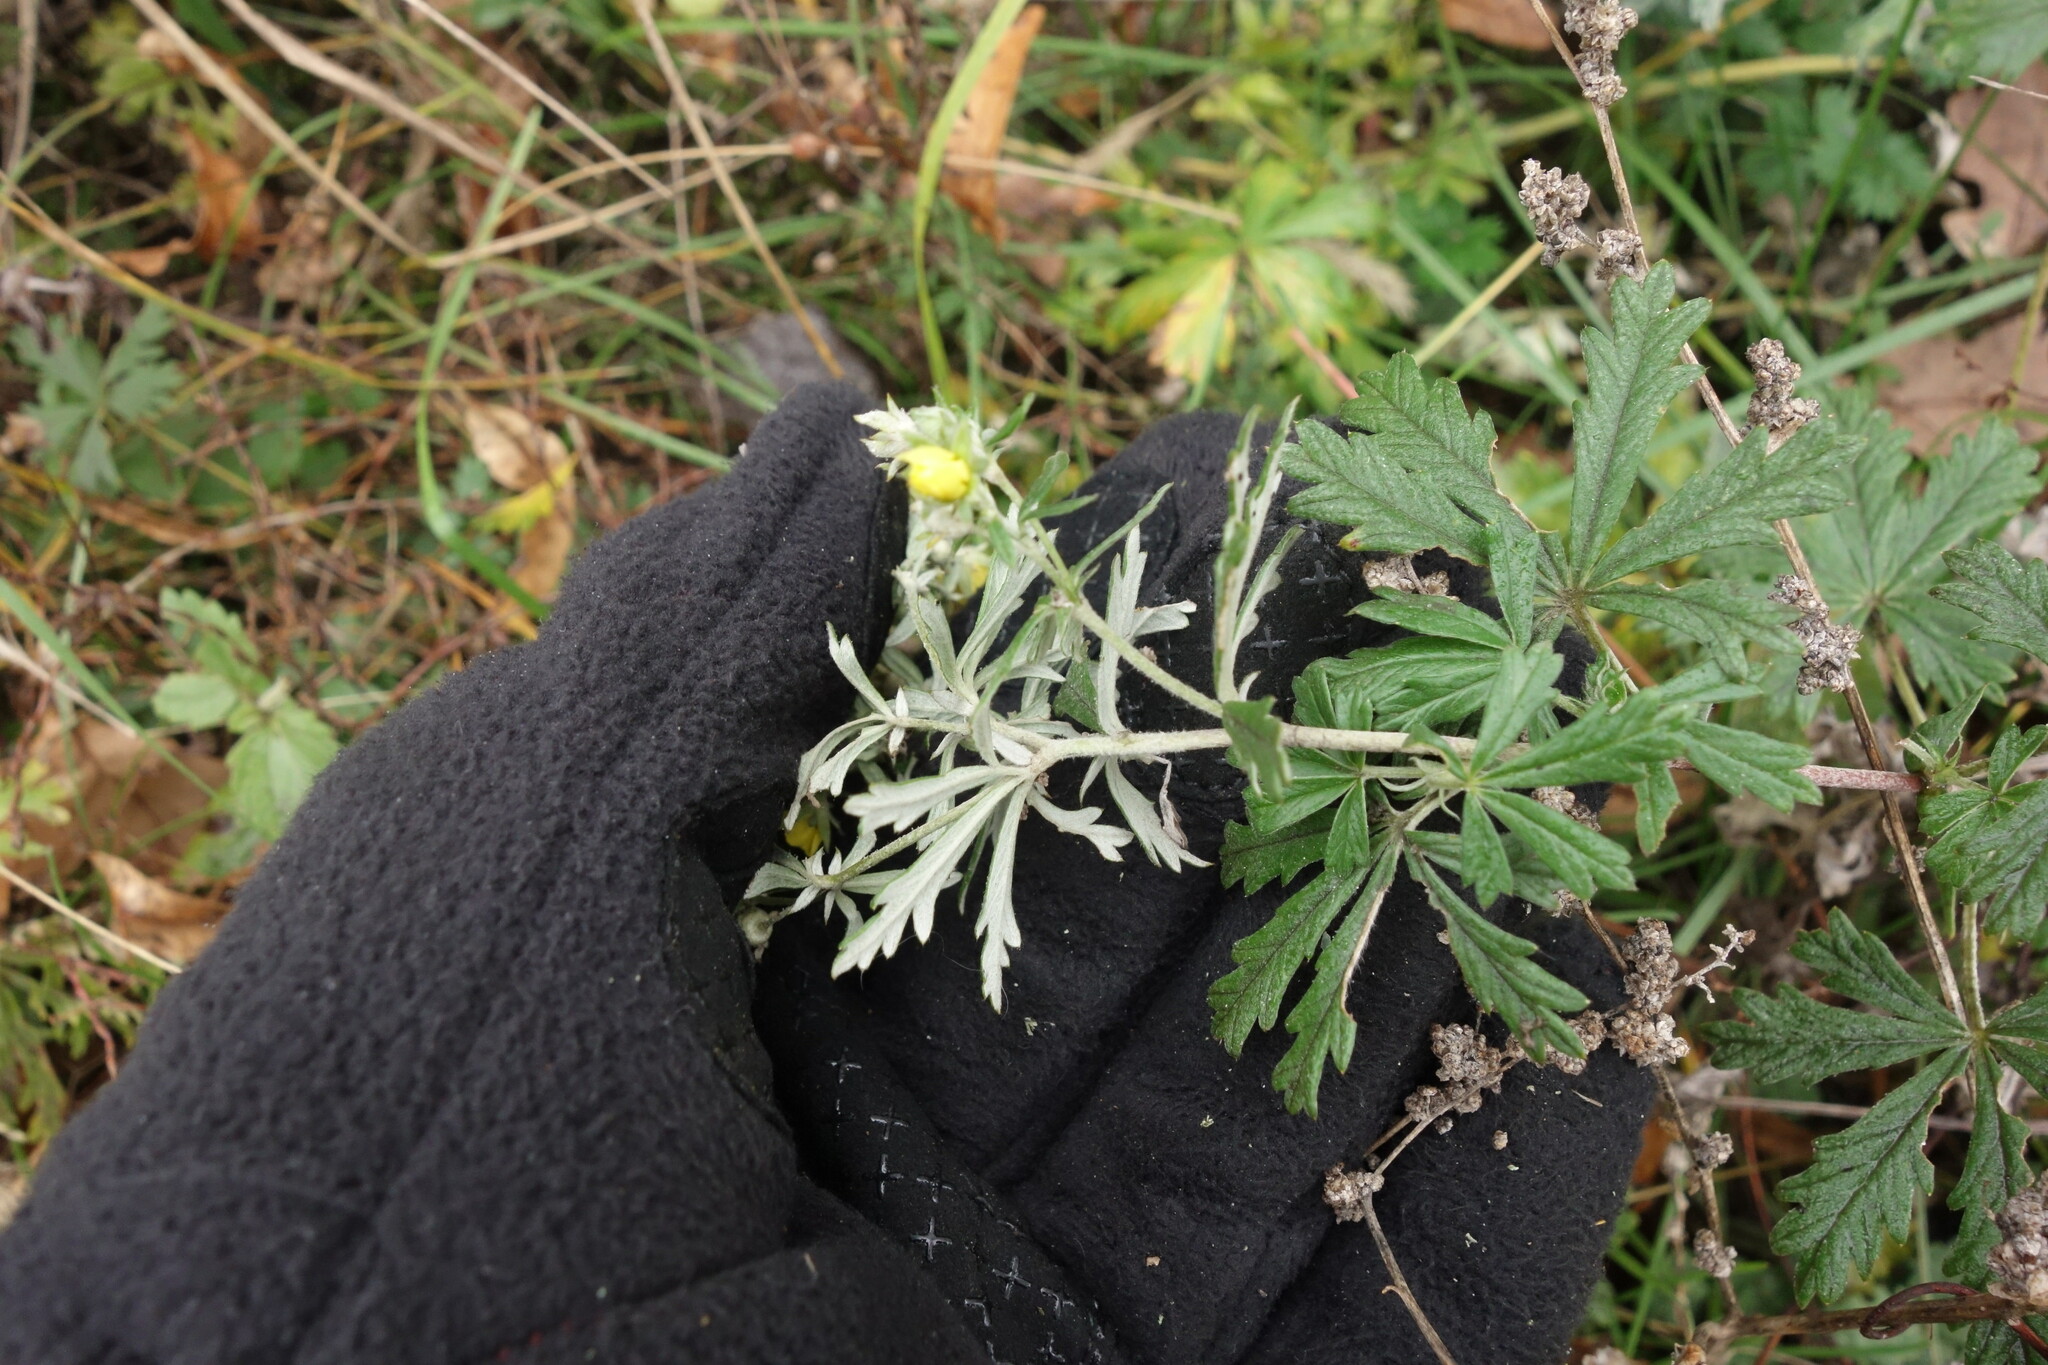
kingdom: Plantae
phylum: Tracheophyta
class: Magnoliopsida
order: Rosales
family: Rosaceae
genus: Potentilla
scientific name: Potentilla argentea
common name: Hoary cinquefoil
